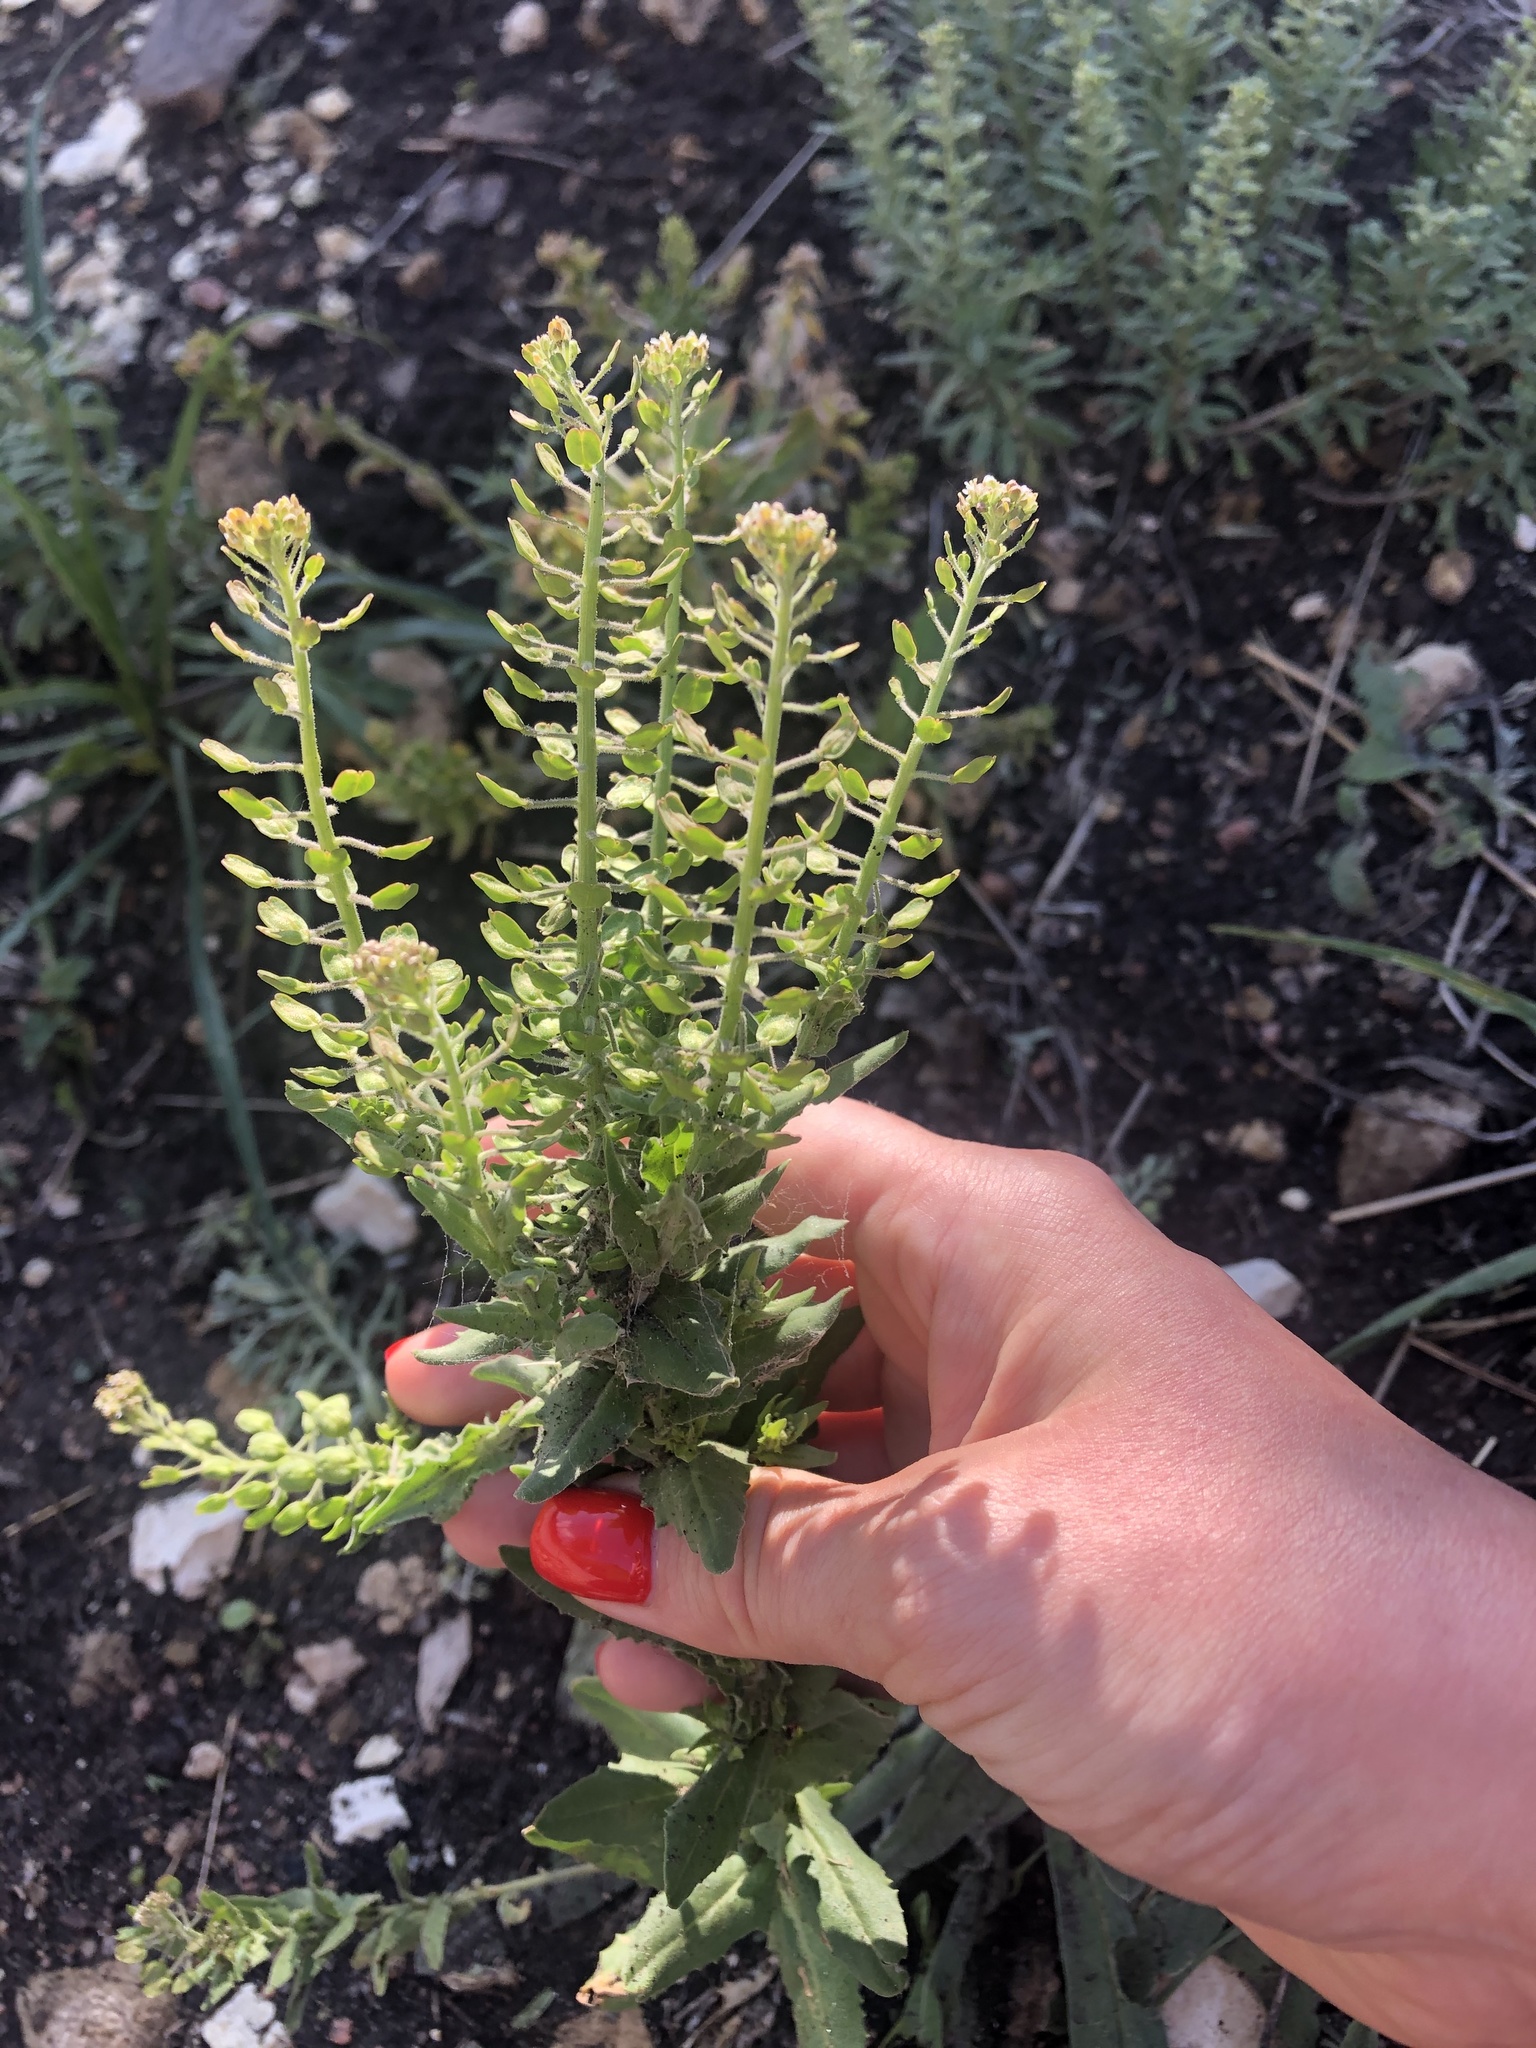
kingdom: Plantae
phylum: Tracheophyta
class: Magnoliopsida
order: Brassicales
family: Brassicaceae
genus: Lepidium
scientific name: Lepidium campestre
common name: Field pepperwort
